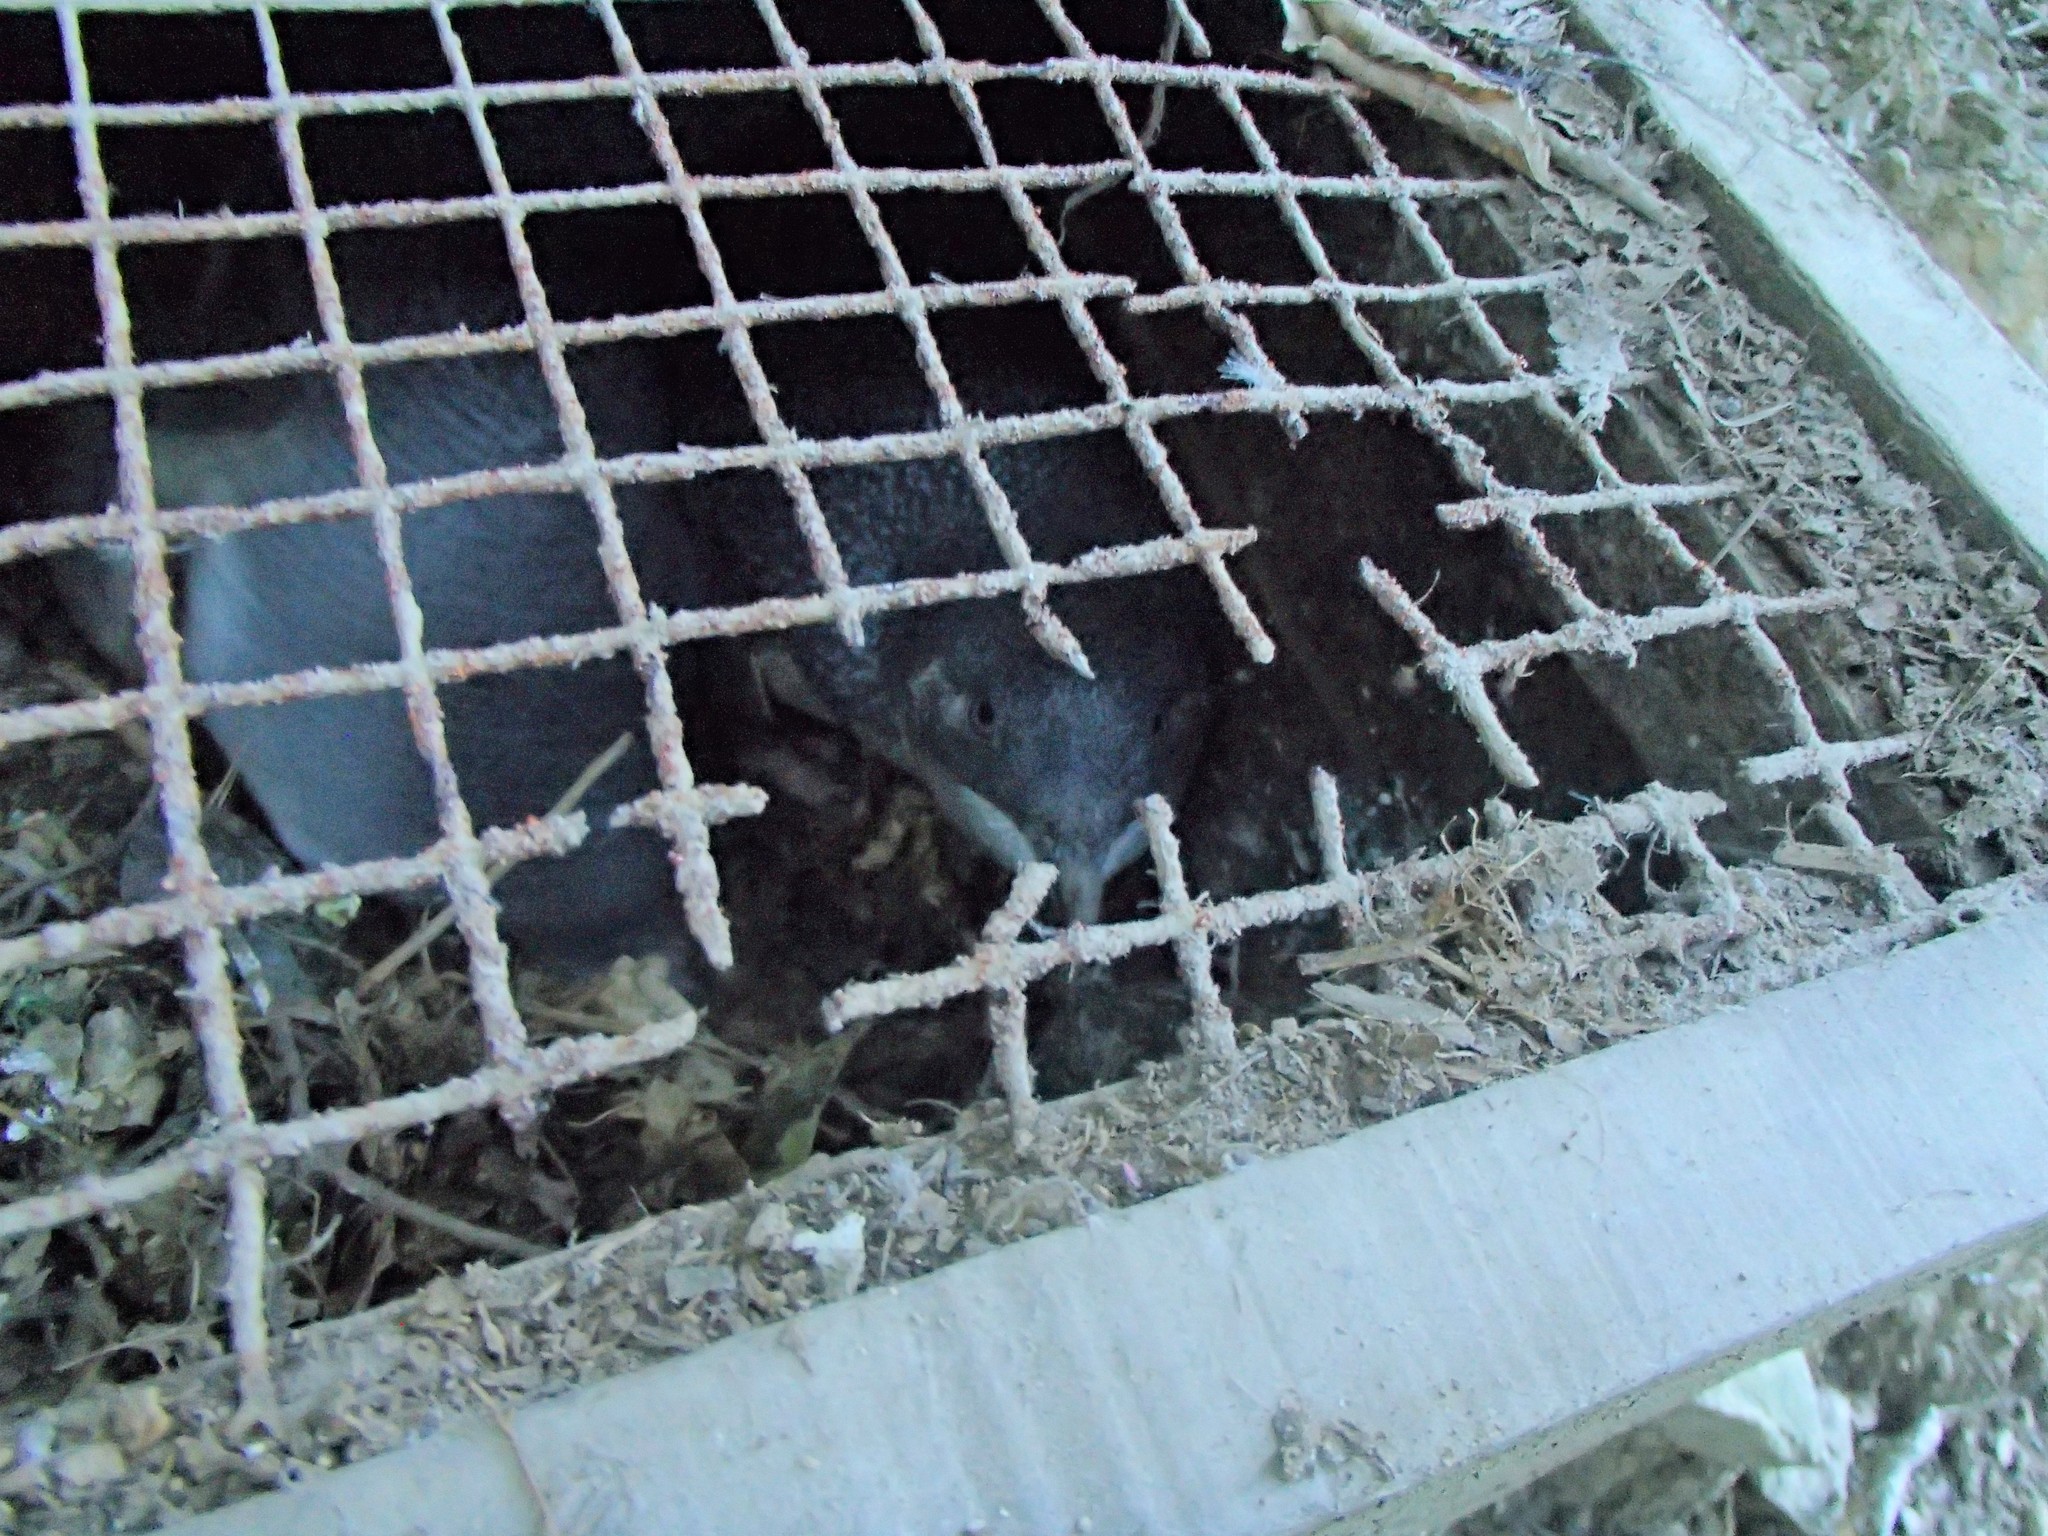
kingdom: Animalia
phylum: Chordata
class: Aves
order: Sphenisciformes
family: Spheniscidae
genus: Eudyptula
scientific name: Eudyptula minor
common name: Little penguin
